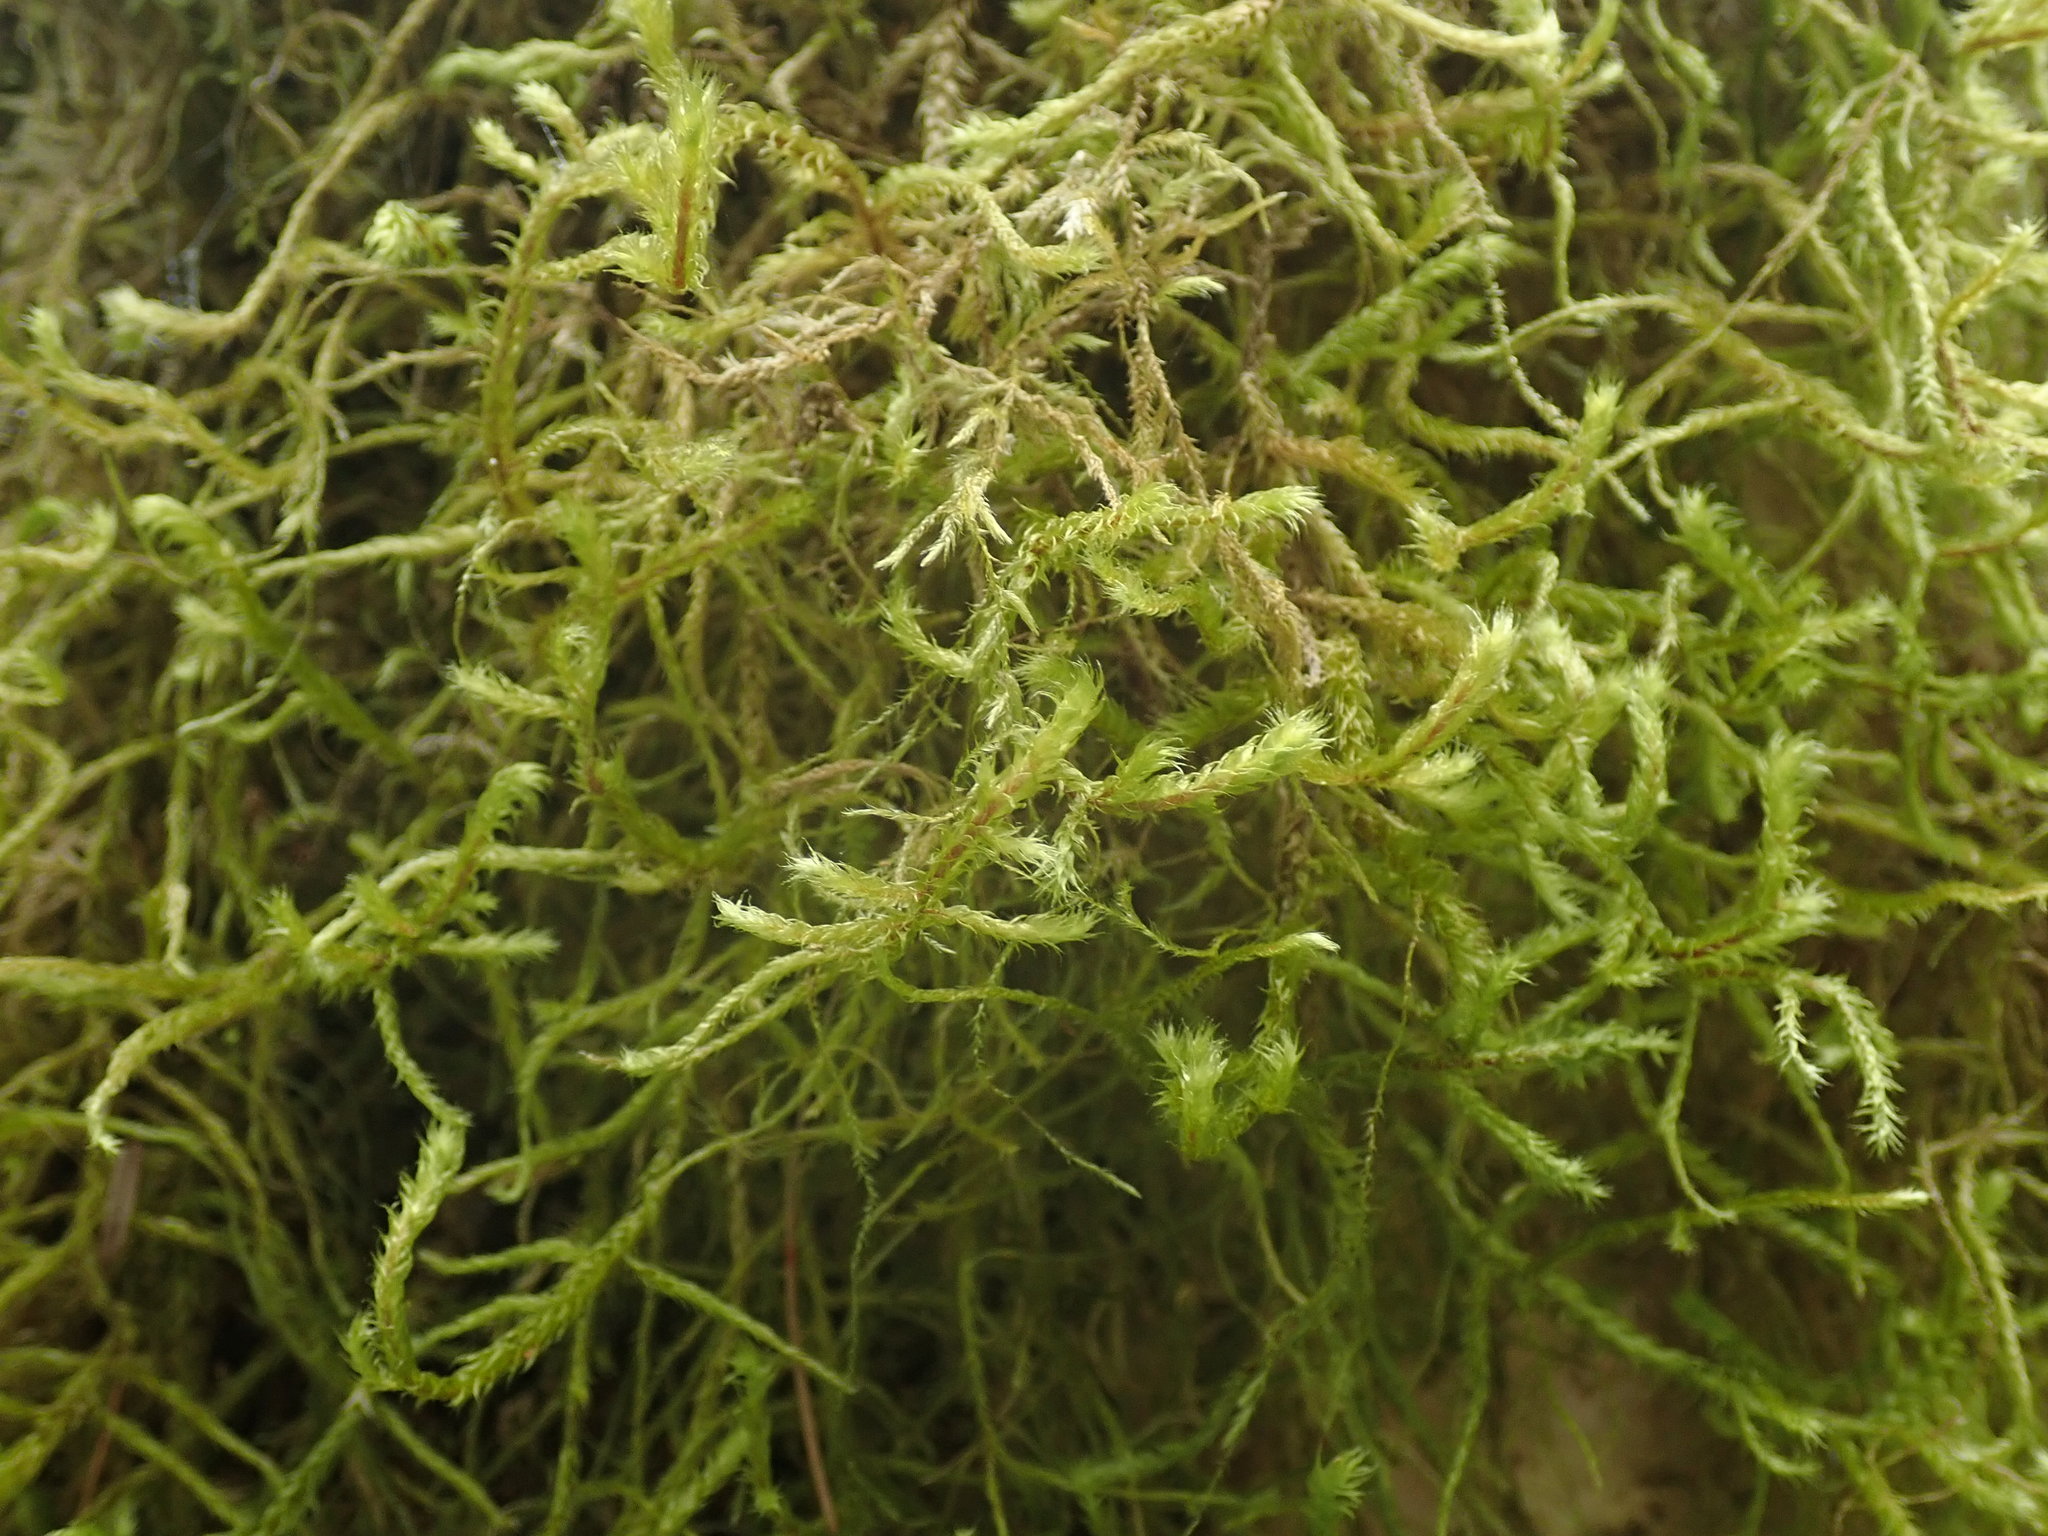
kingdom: Plantae
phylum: Bryophyta
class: Bryopsida
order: Hypnales
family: Antitrichiaceae
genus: Antitrichia
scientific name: Antitrichia curtipendula
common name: Pendulous wing-moss
